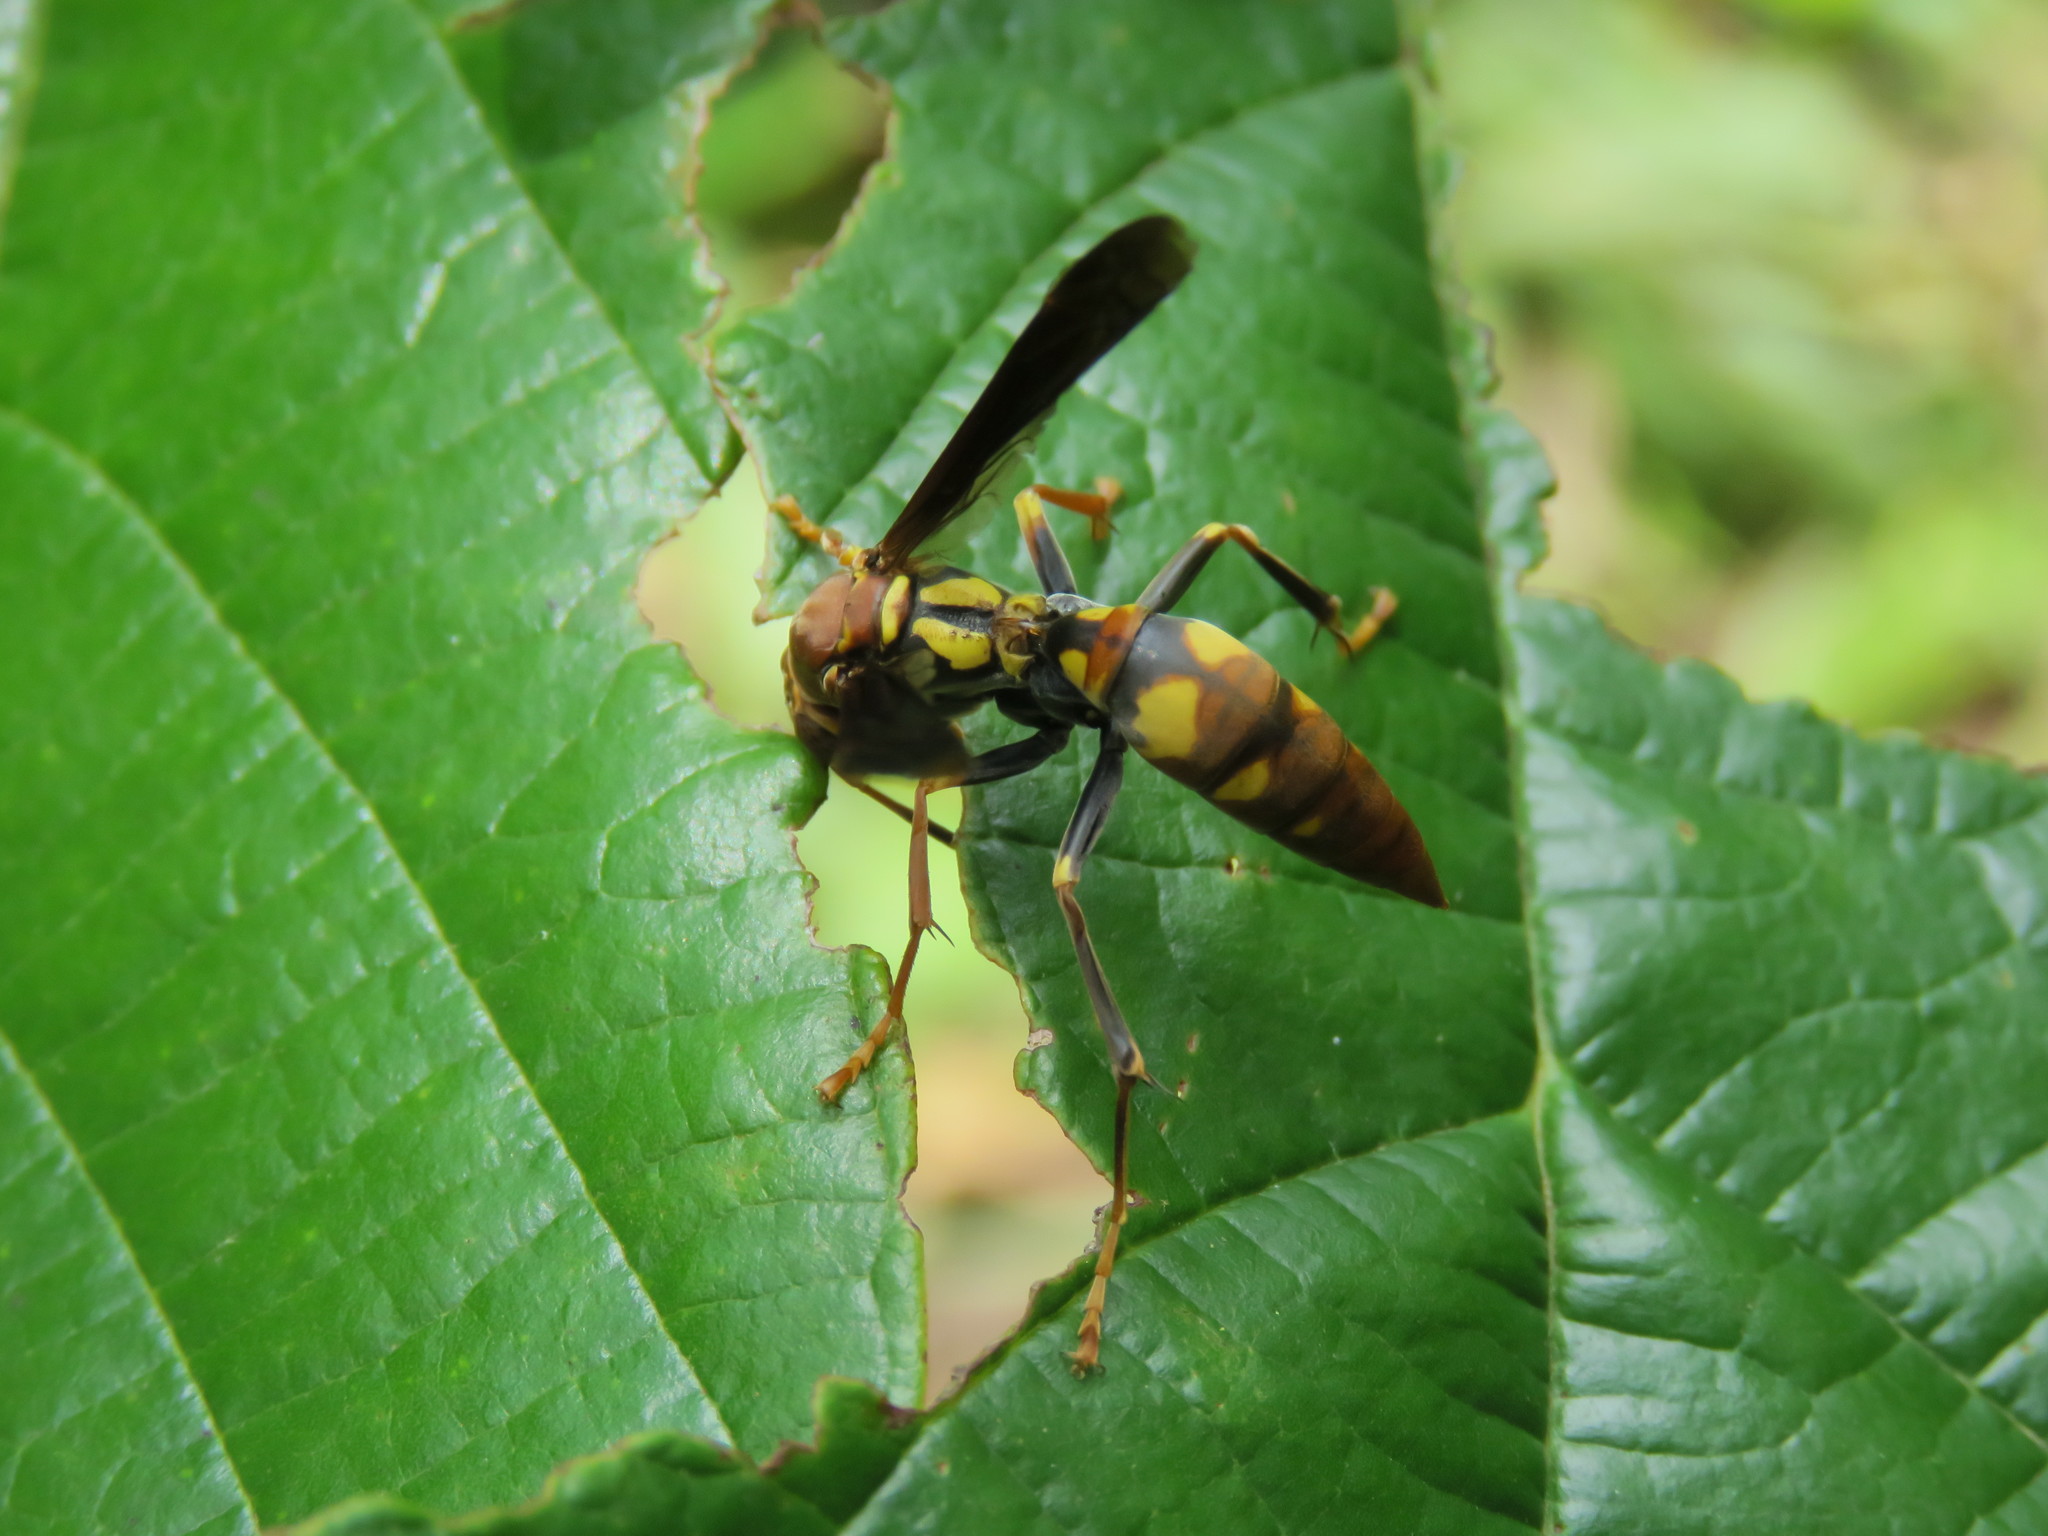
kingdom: Animalia
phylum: Arthropoda
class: Insecta
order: Hymenoptera
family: Eumenidae
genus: Polistes
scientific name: Polistes versicolor
